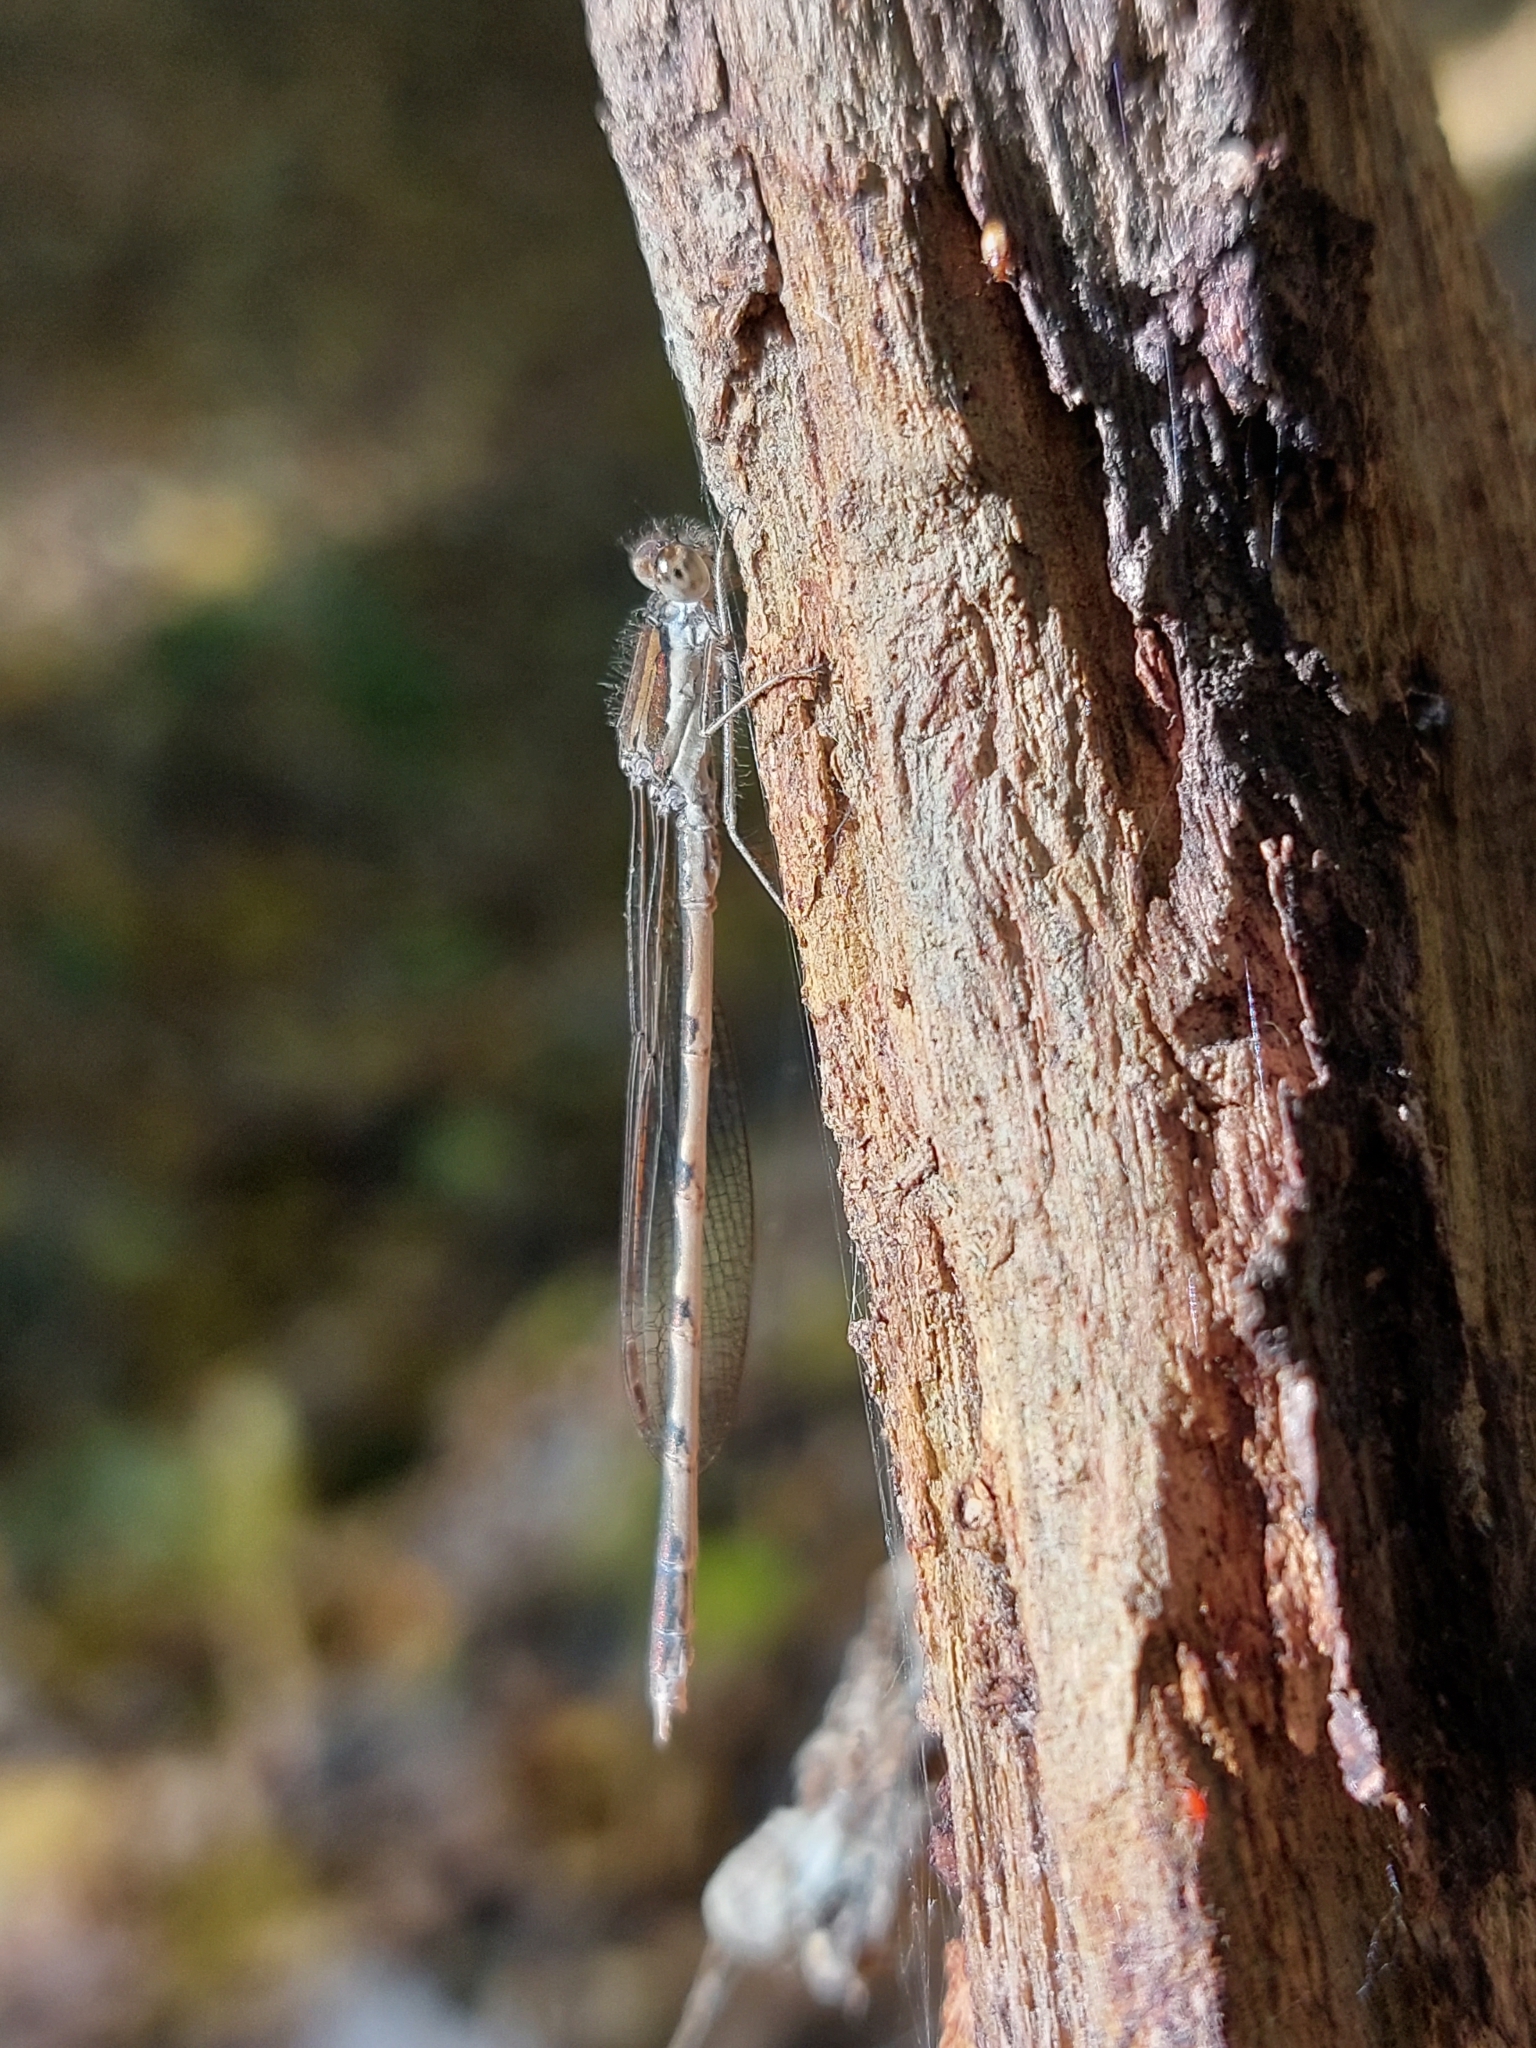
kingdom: Animalia
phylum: Arthropoda
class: Insecta
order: Odonata
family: Lestidae
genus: Sympecma
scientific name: Sympecma fusca
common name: Common winter damsel
